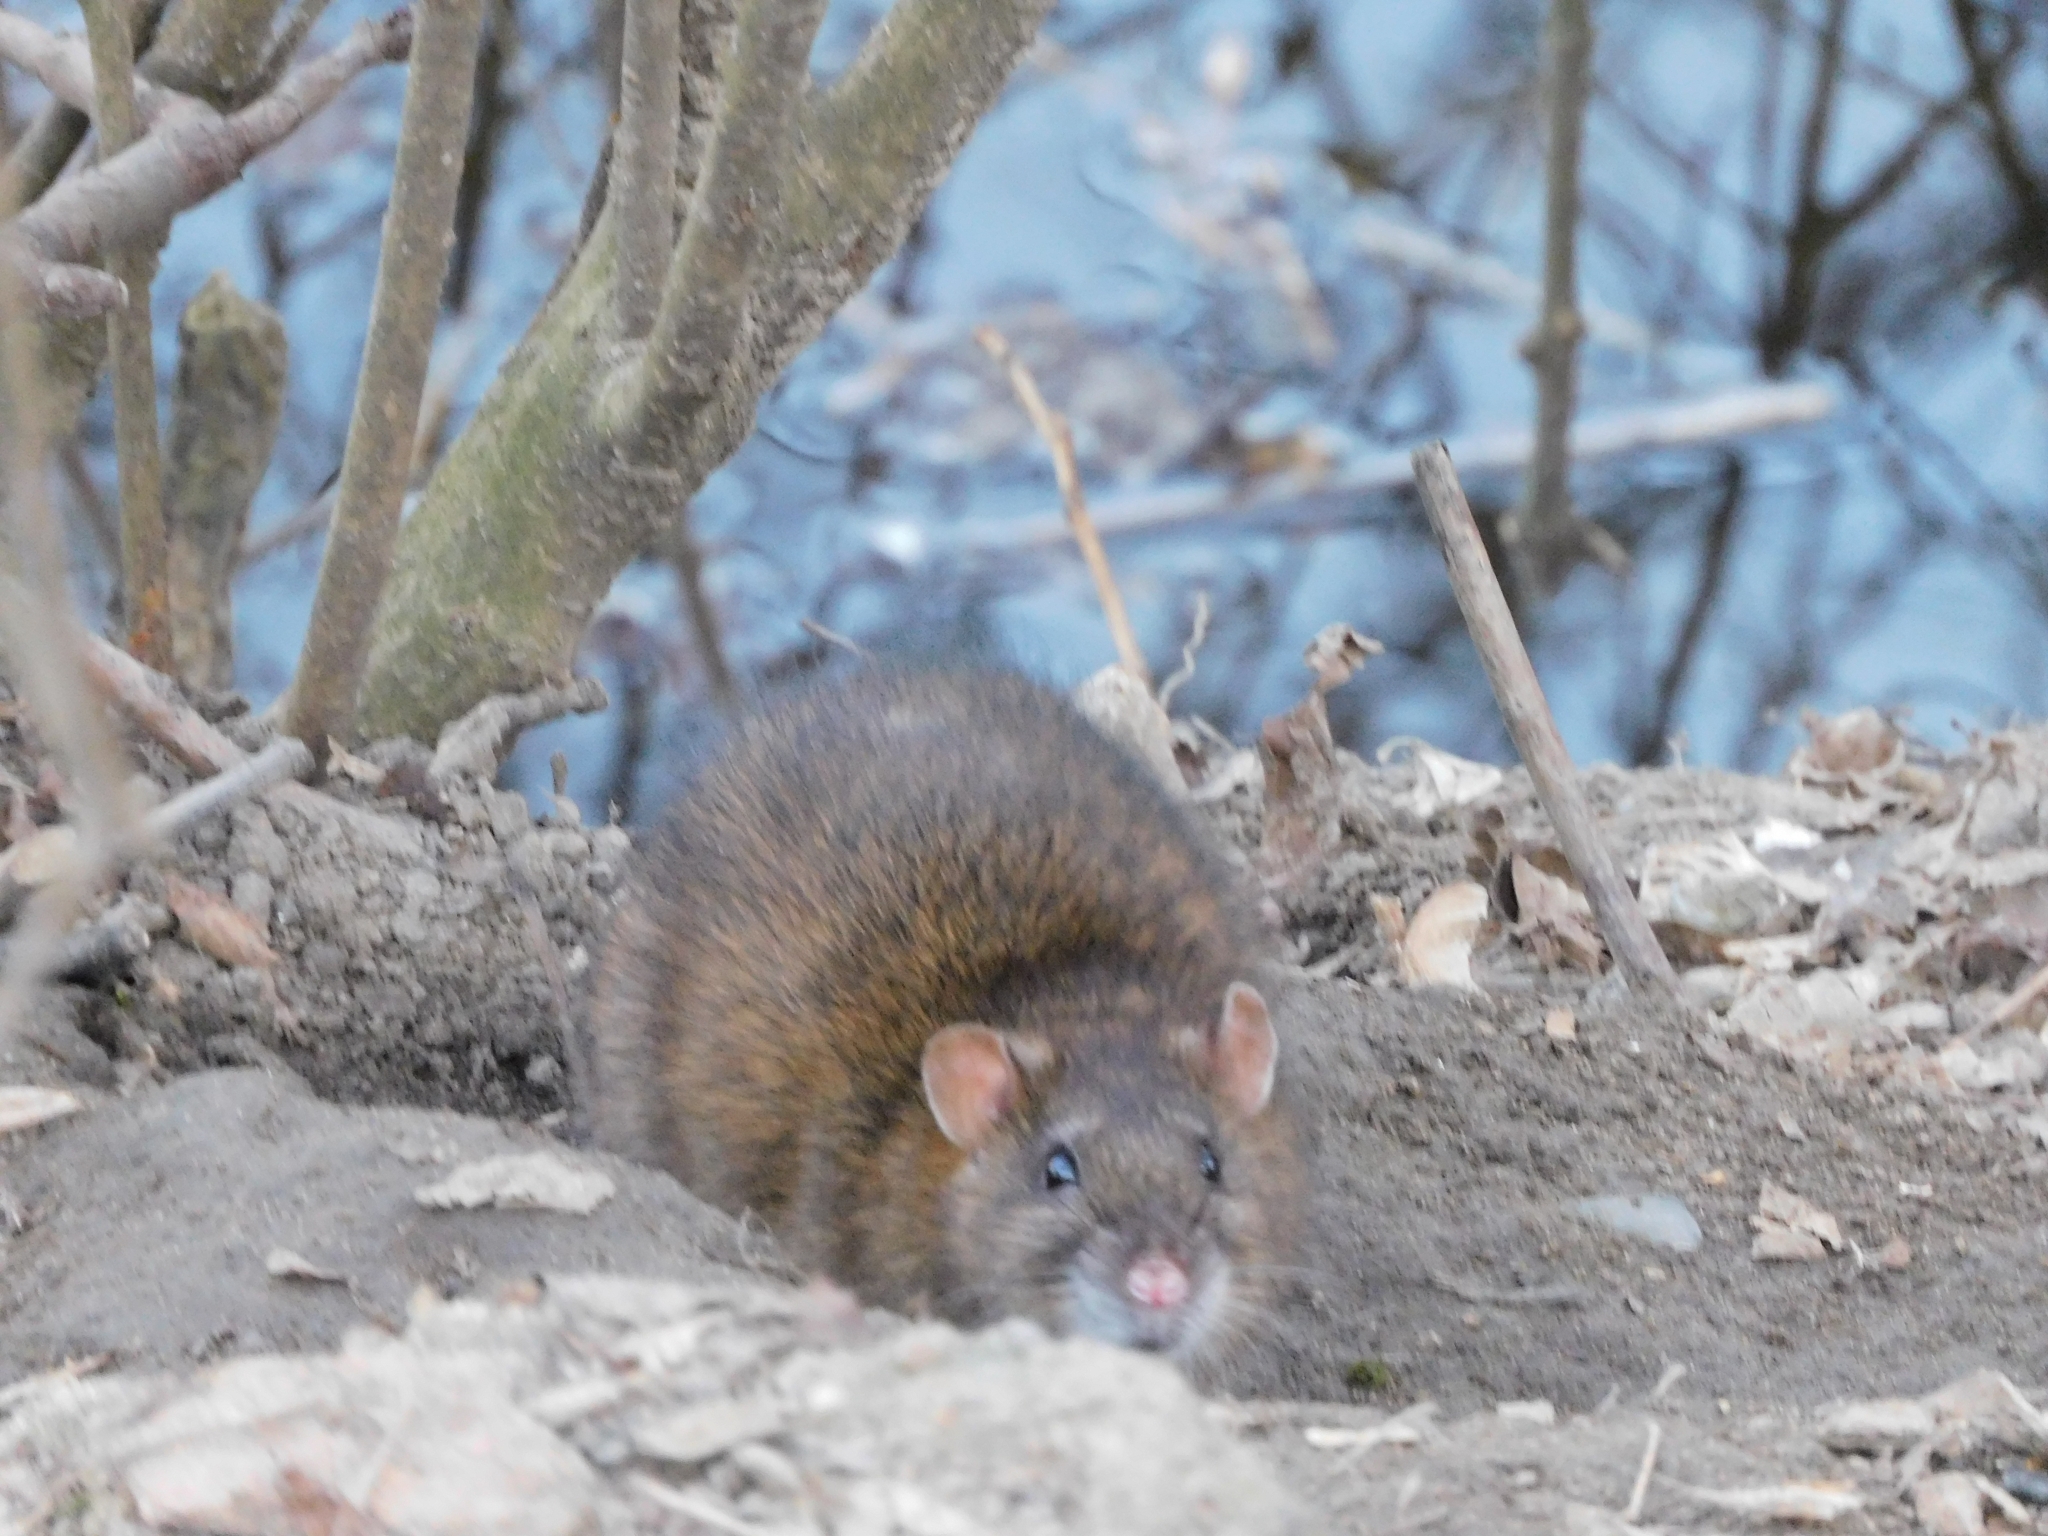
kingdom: Animalia
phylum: Chordata
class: Mammalia
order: Rodentia
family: Muridae
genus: Rattus
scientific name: Rattus norvegicus
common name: Brown rat
